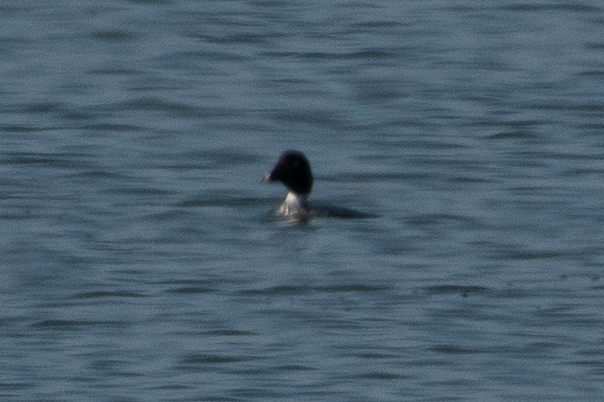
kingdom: Animalia
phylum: Chordata
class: Aves
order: Anseriformes
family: Anatidae
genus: Bucephala
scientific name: Bucephala clangula
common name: Common goldeneye
